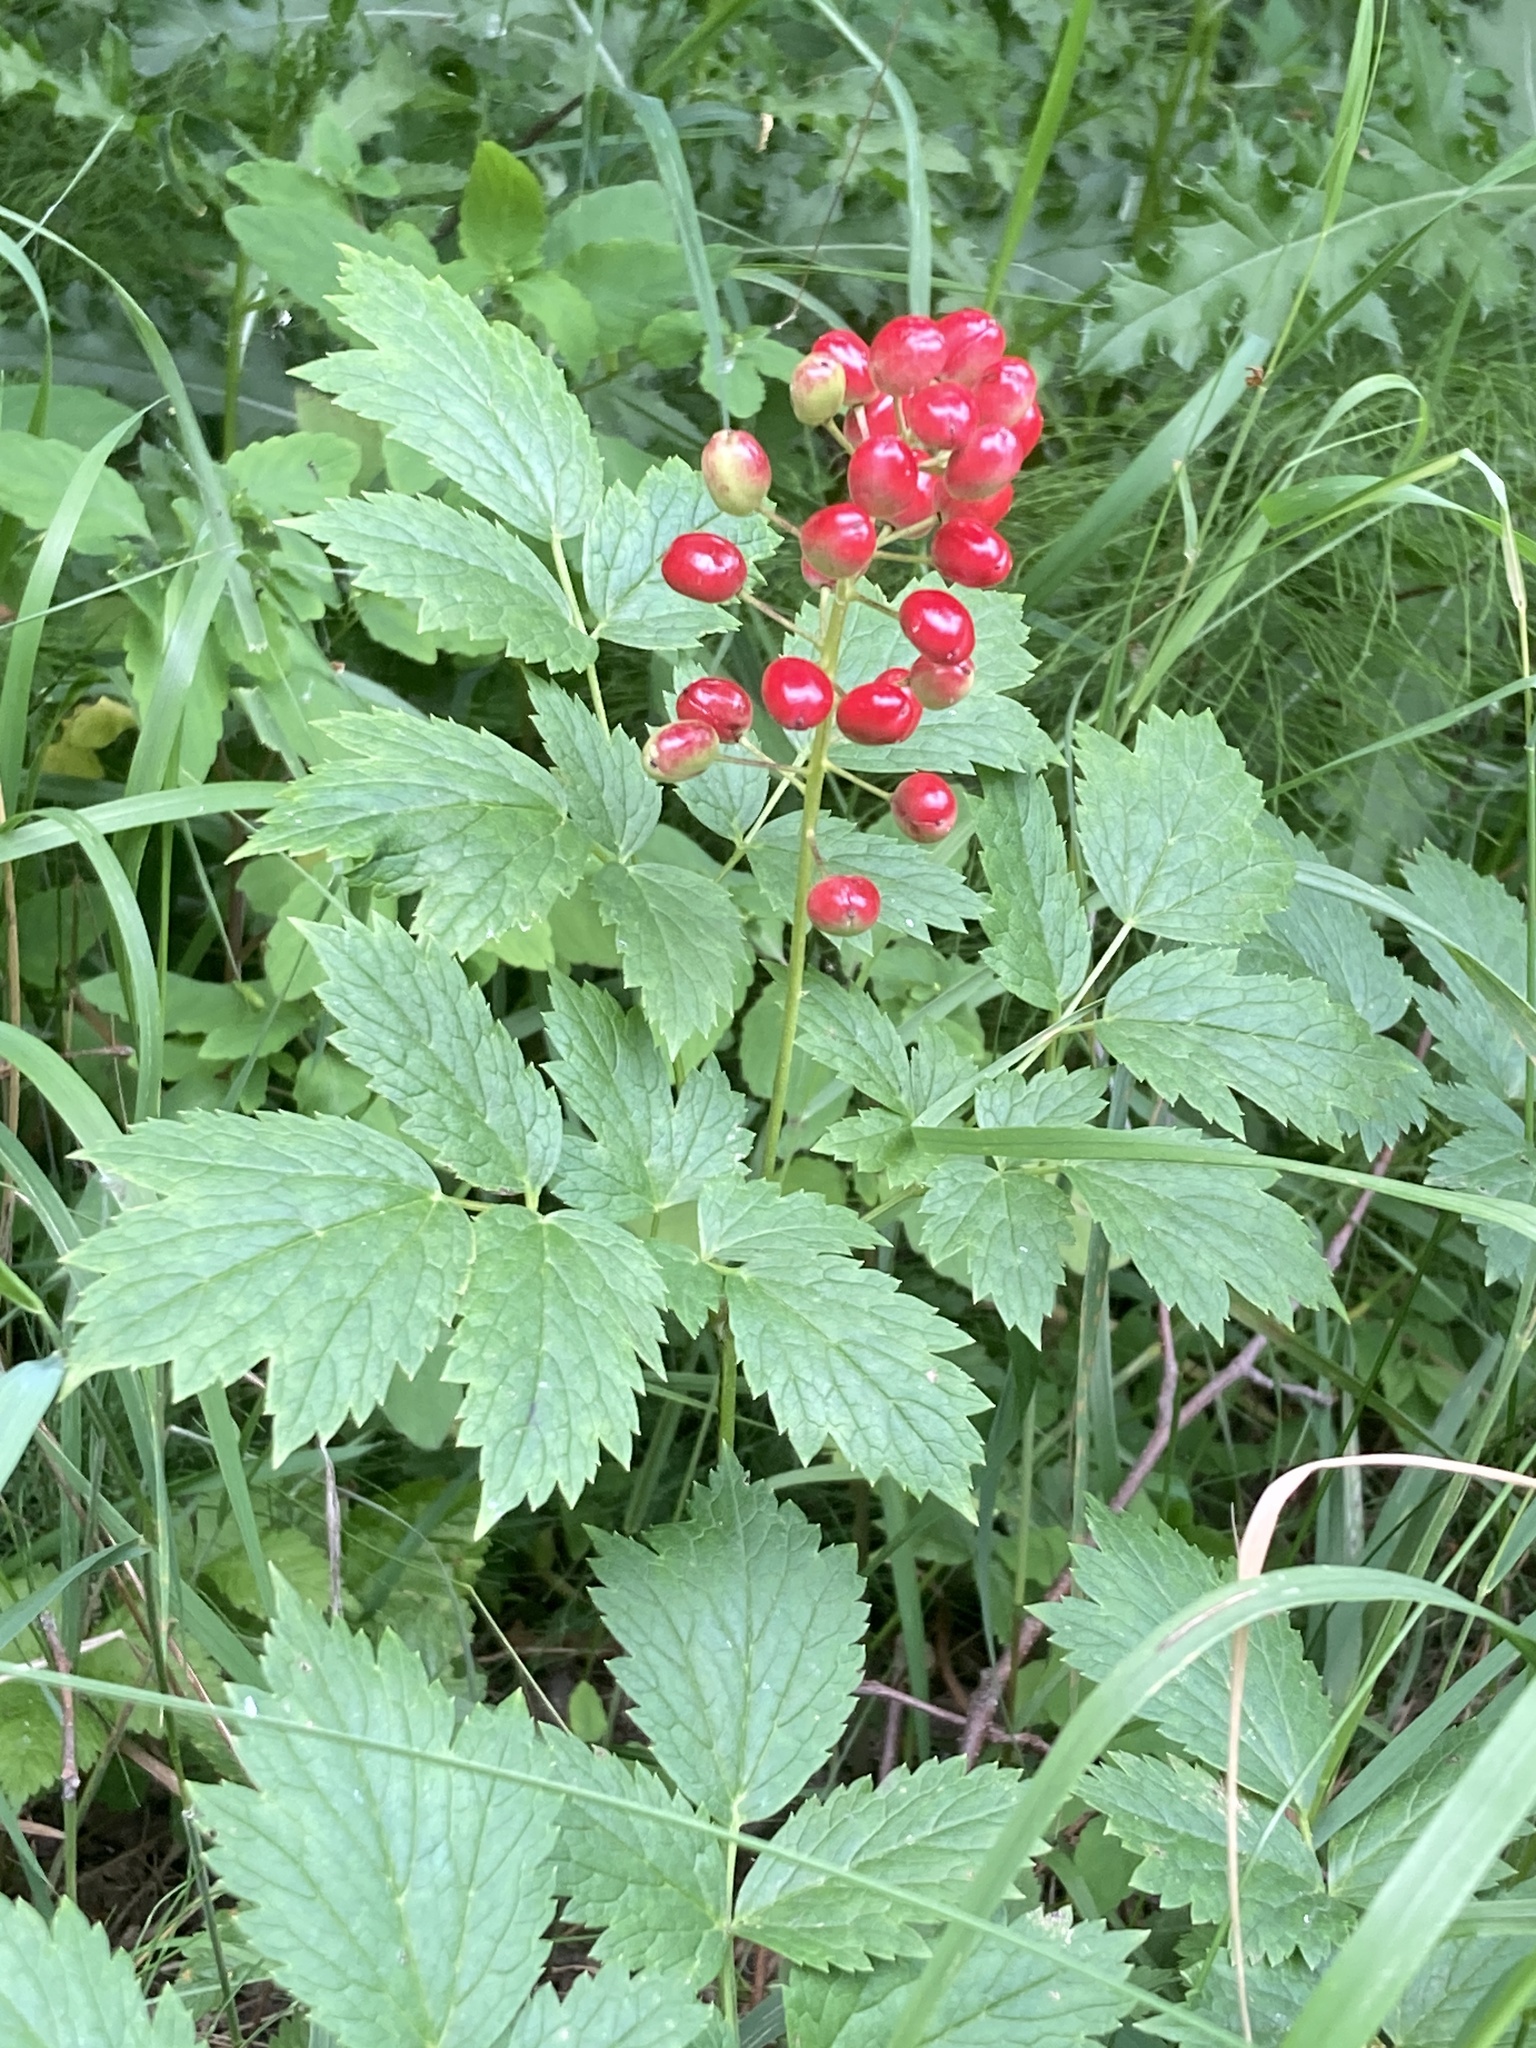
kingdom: Plantae
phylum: Tracheophyta
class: Magnoliopsida
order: Ranunculales
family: Ranunculaceae
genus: Actaea
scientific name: Actaea rubra
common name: Red baneberry
